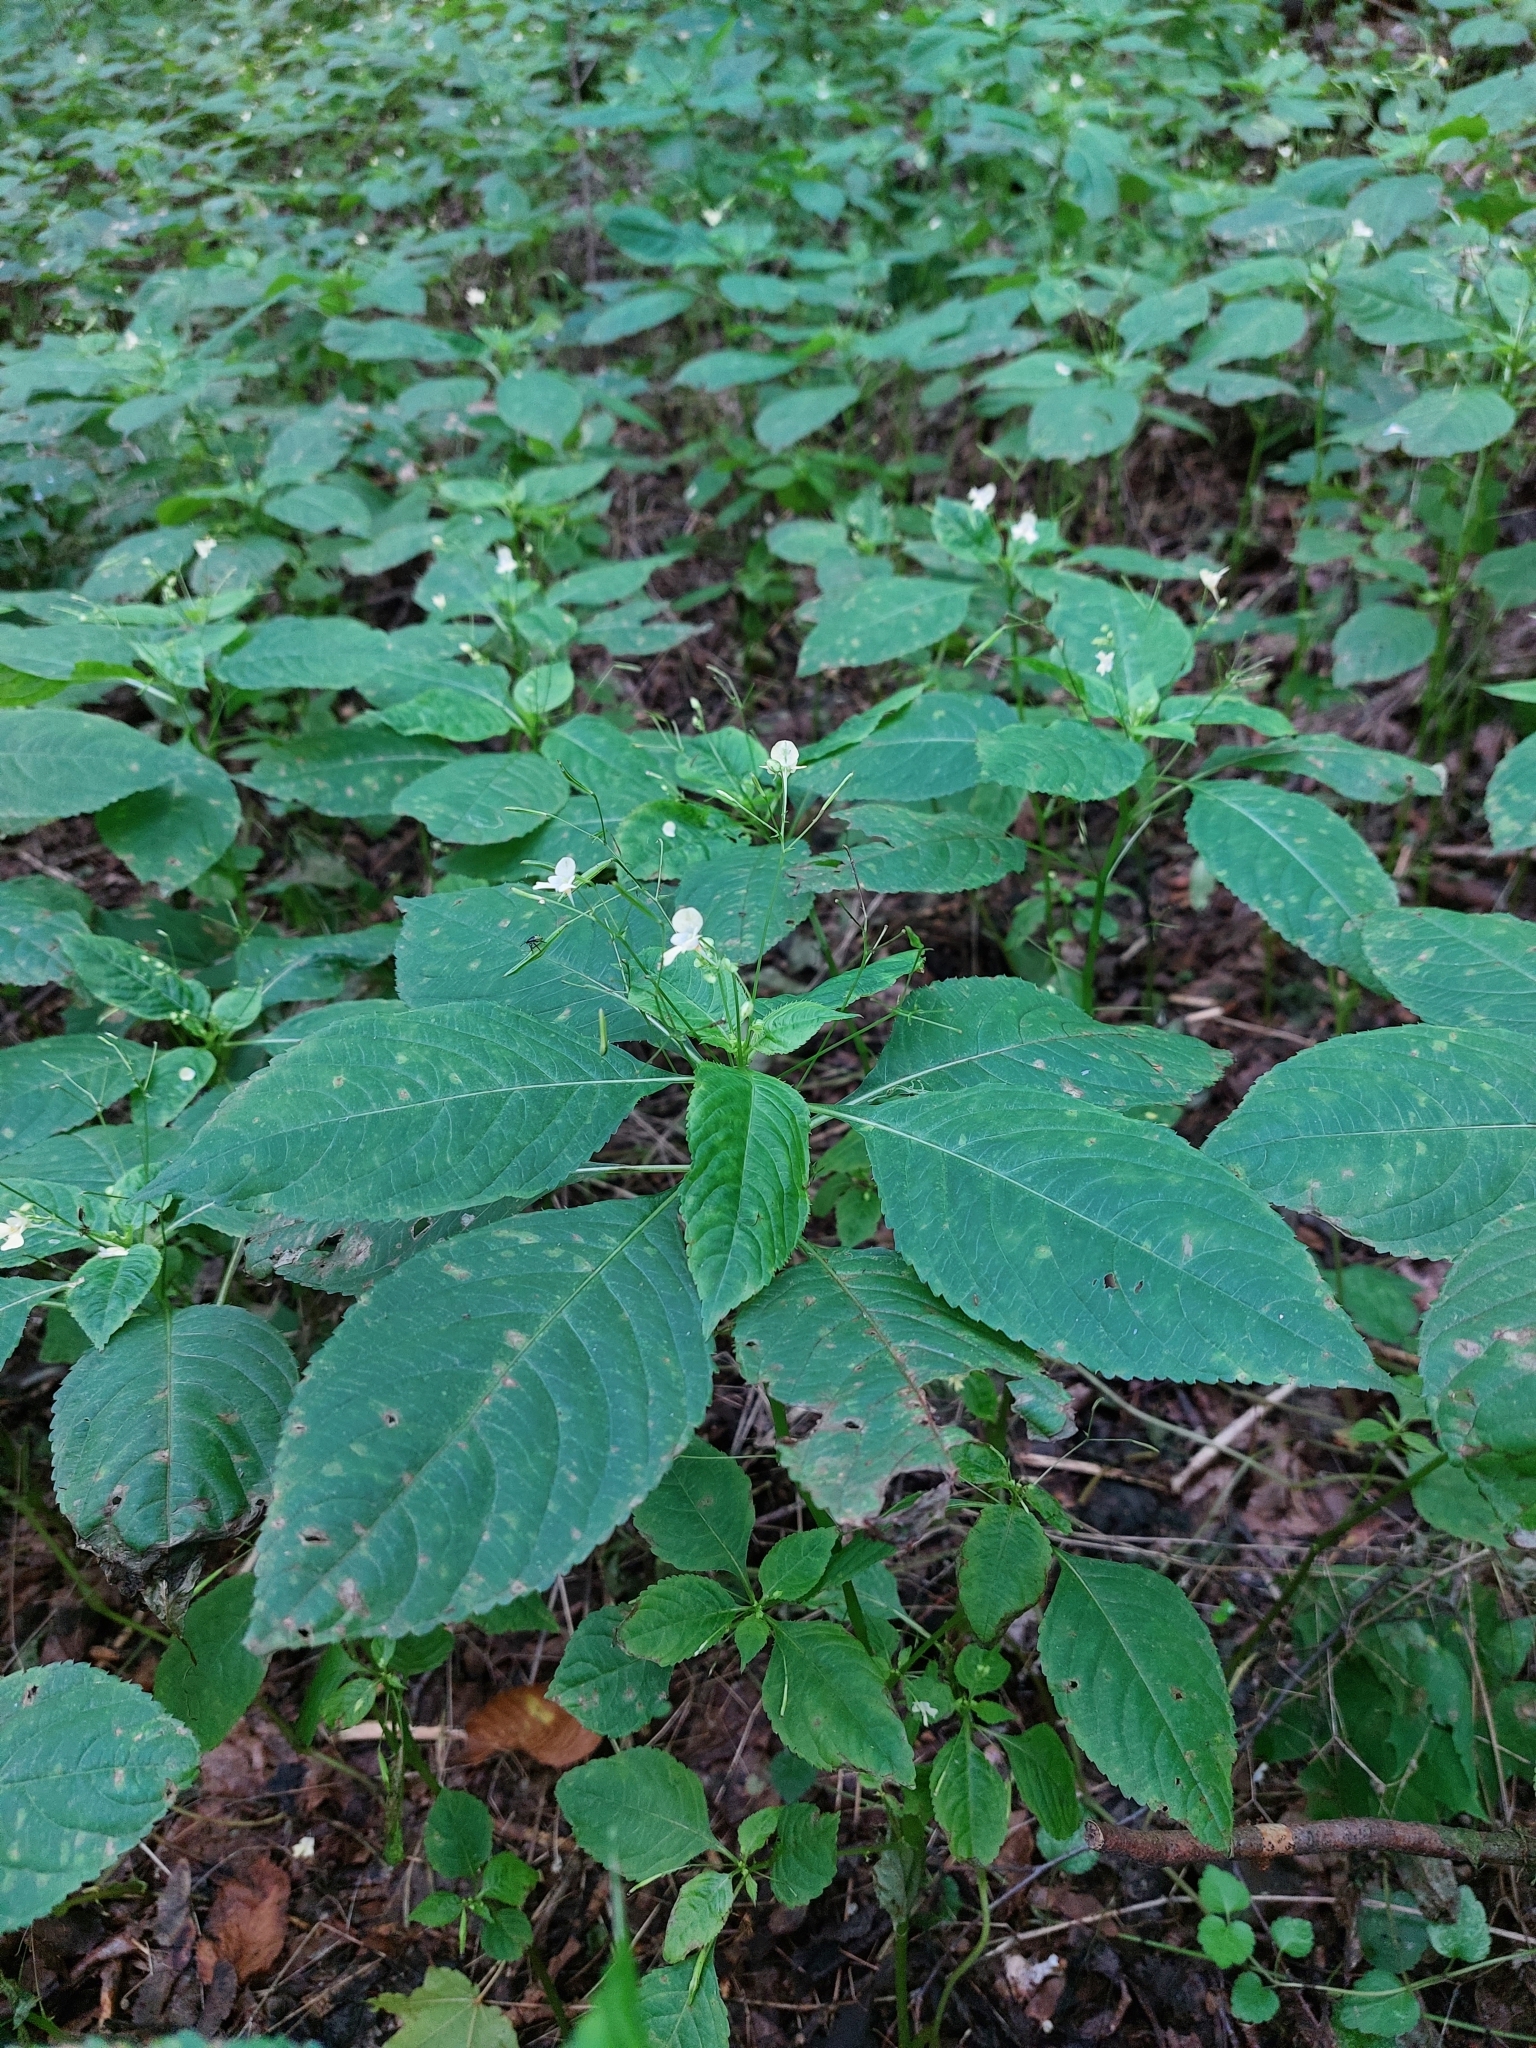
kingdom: Plantae
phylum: Tracheophyta
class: Magnoliopsida
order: Ericales
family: Balsaminaceae
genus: Impatiens
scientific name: Impatiens parviflora
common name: Small balsam
